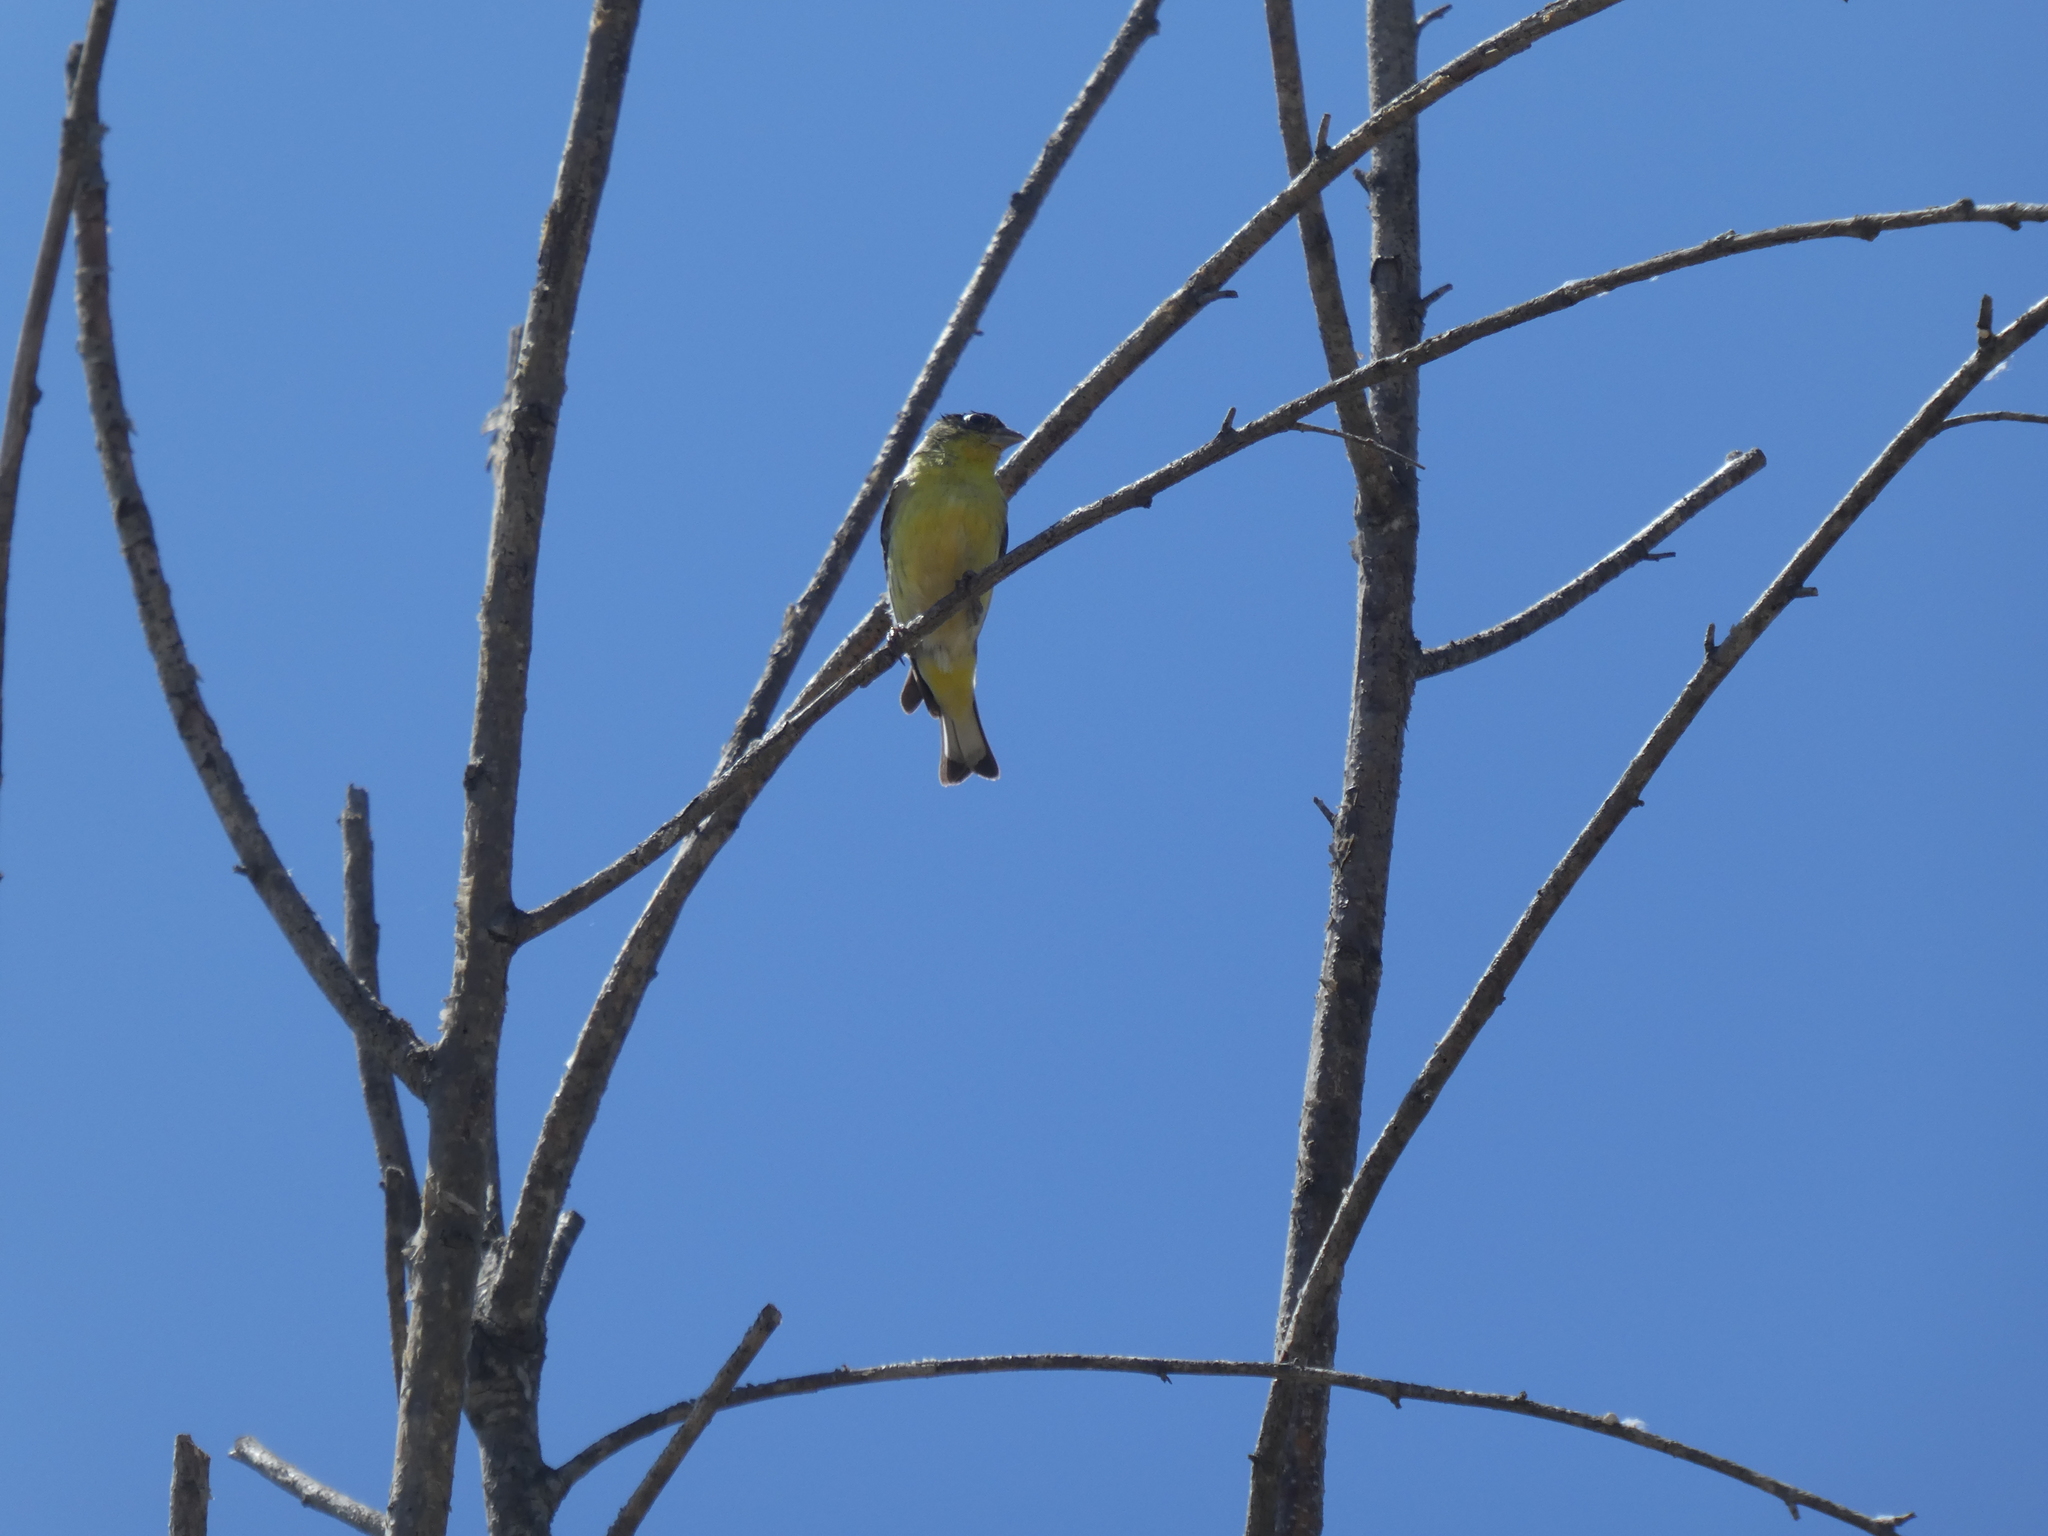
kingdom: Animalia
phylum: Chordata
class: Aves
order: Passeriformes
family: Fringillidae
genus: Spinus
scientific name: Spinus psaltria
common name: Lesser goldfinch
